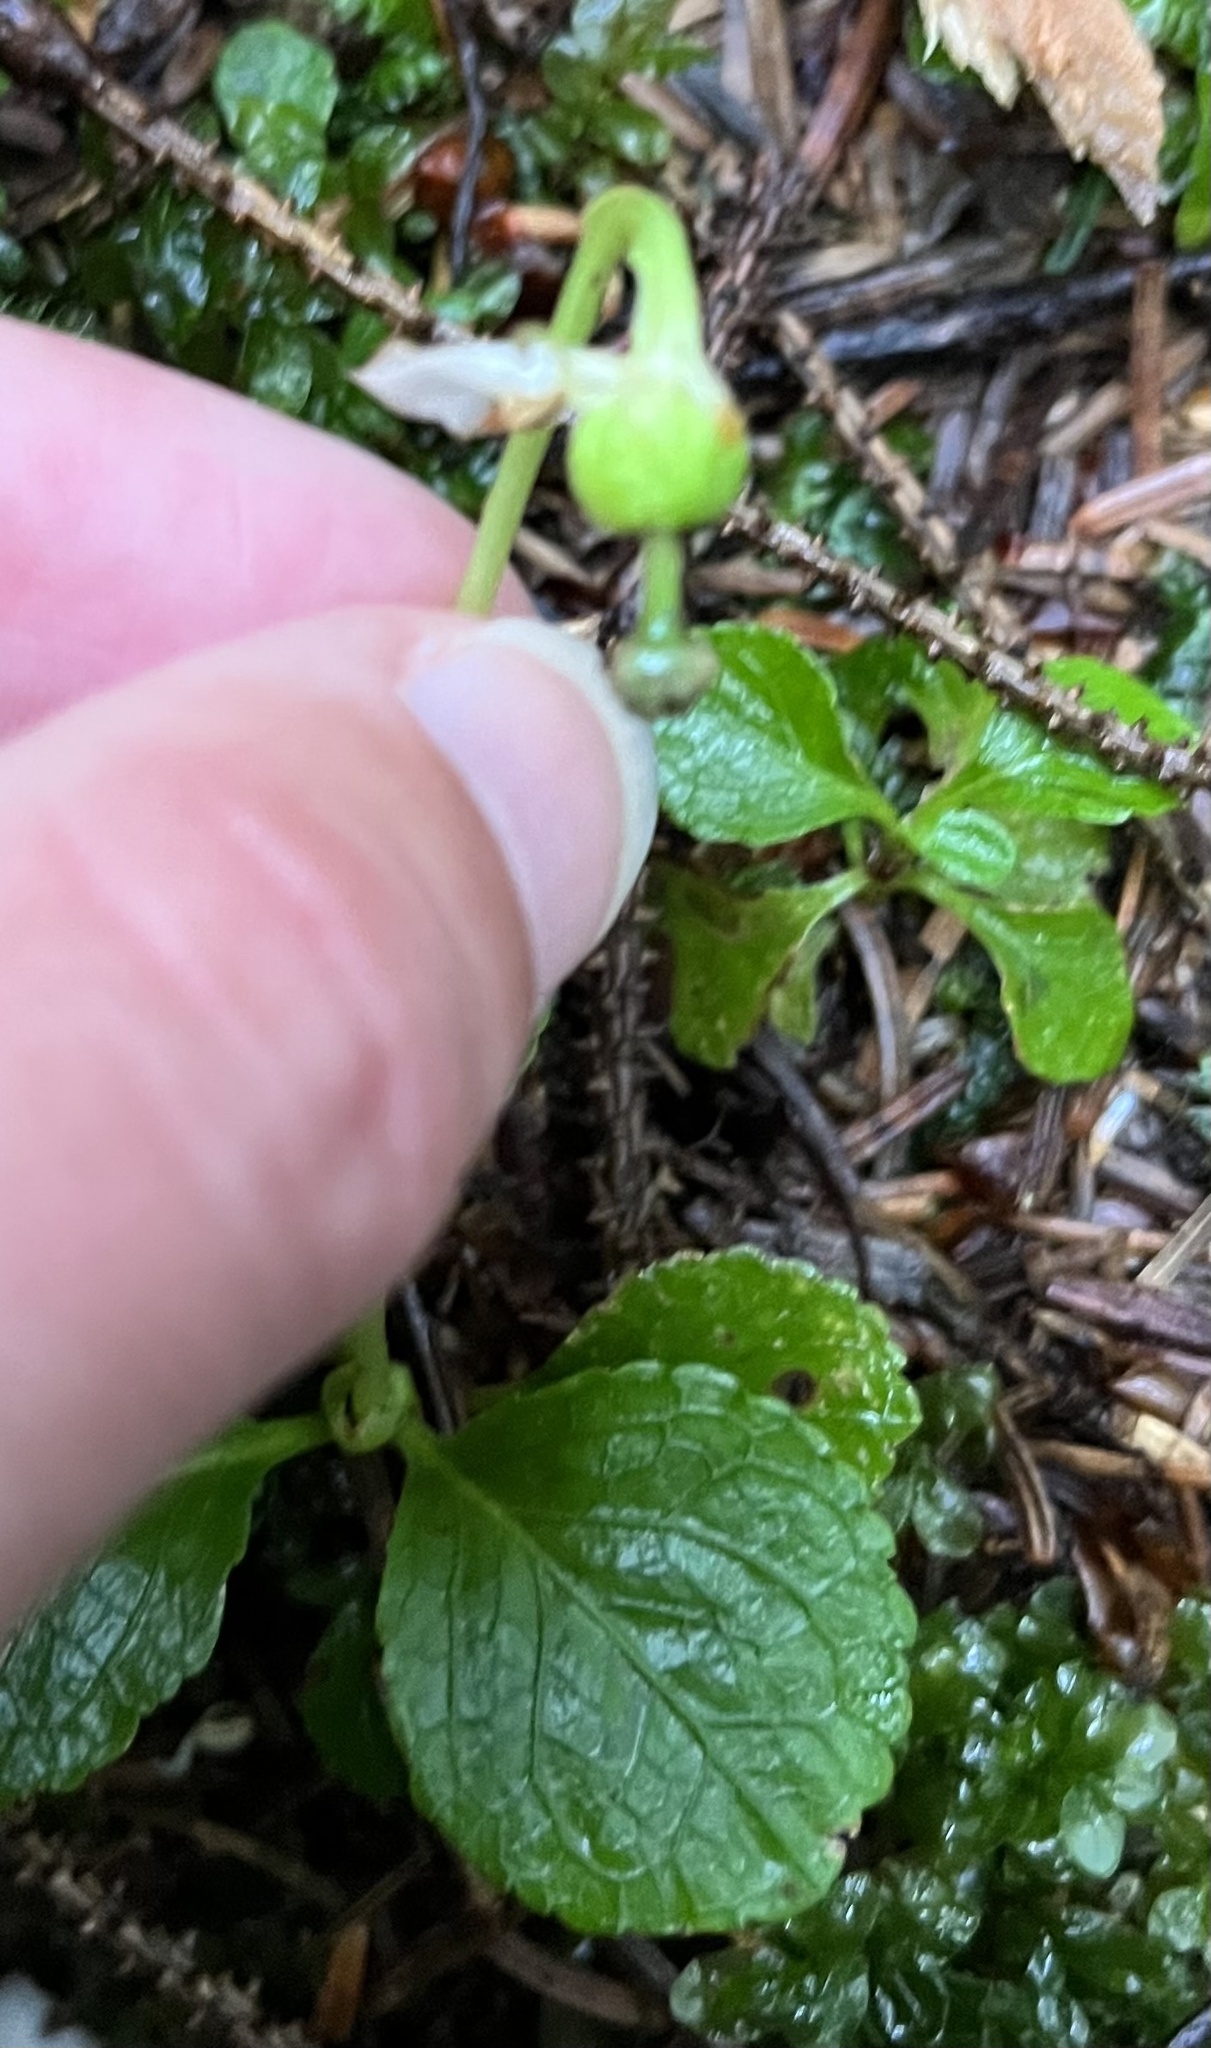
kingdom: Plantae
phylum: Tracheophyta
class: Magnoliopsida
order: Ericales
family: Ericaceae
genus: Moneses
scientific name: Moneses uniflora
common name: One-flowered wintergreen
